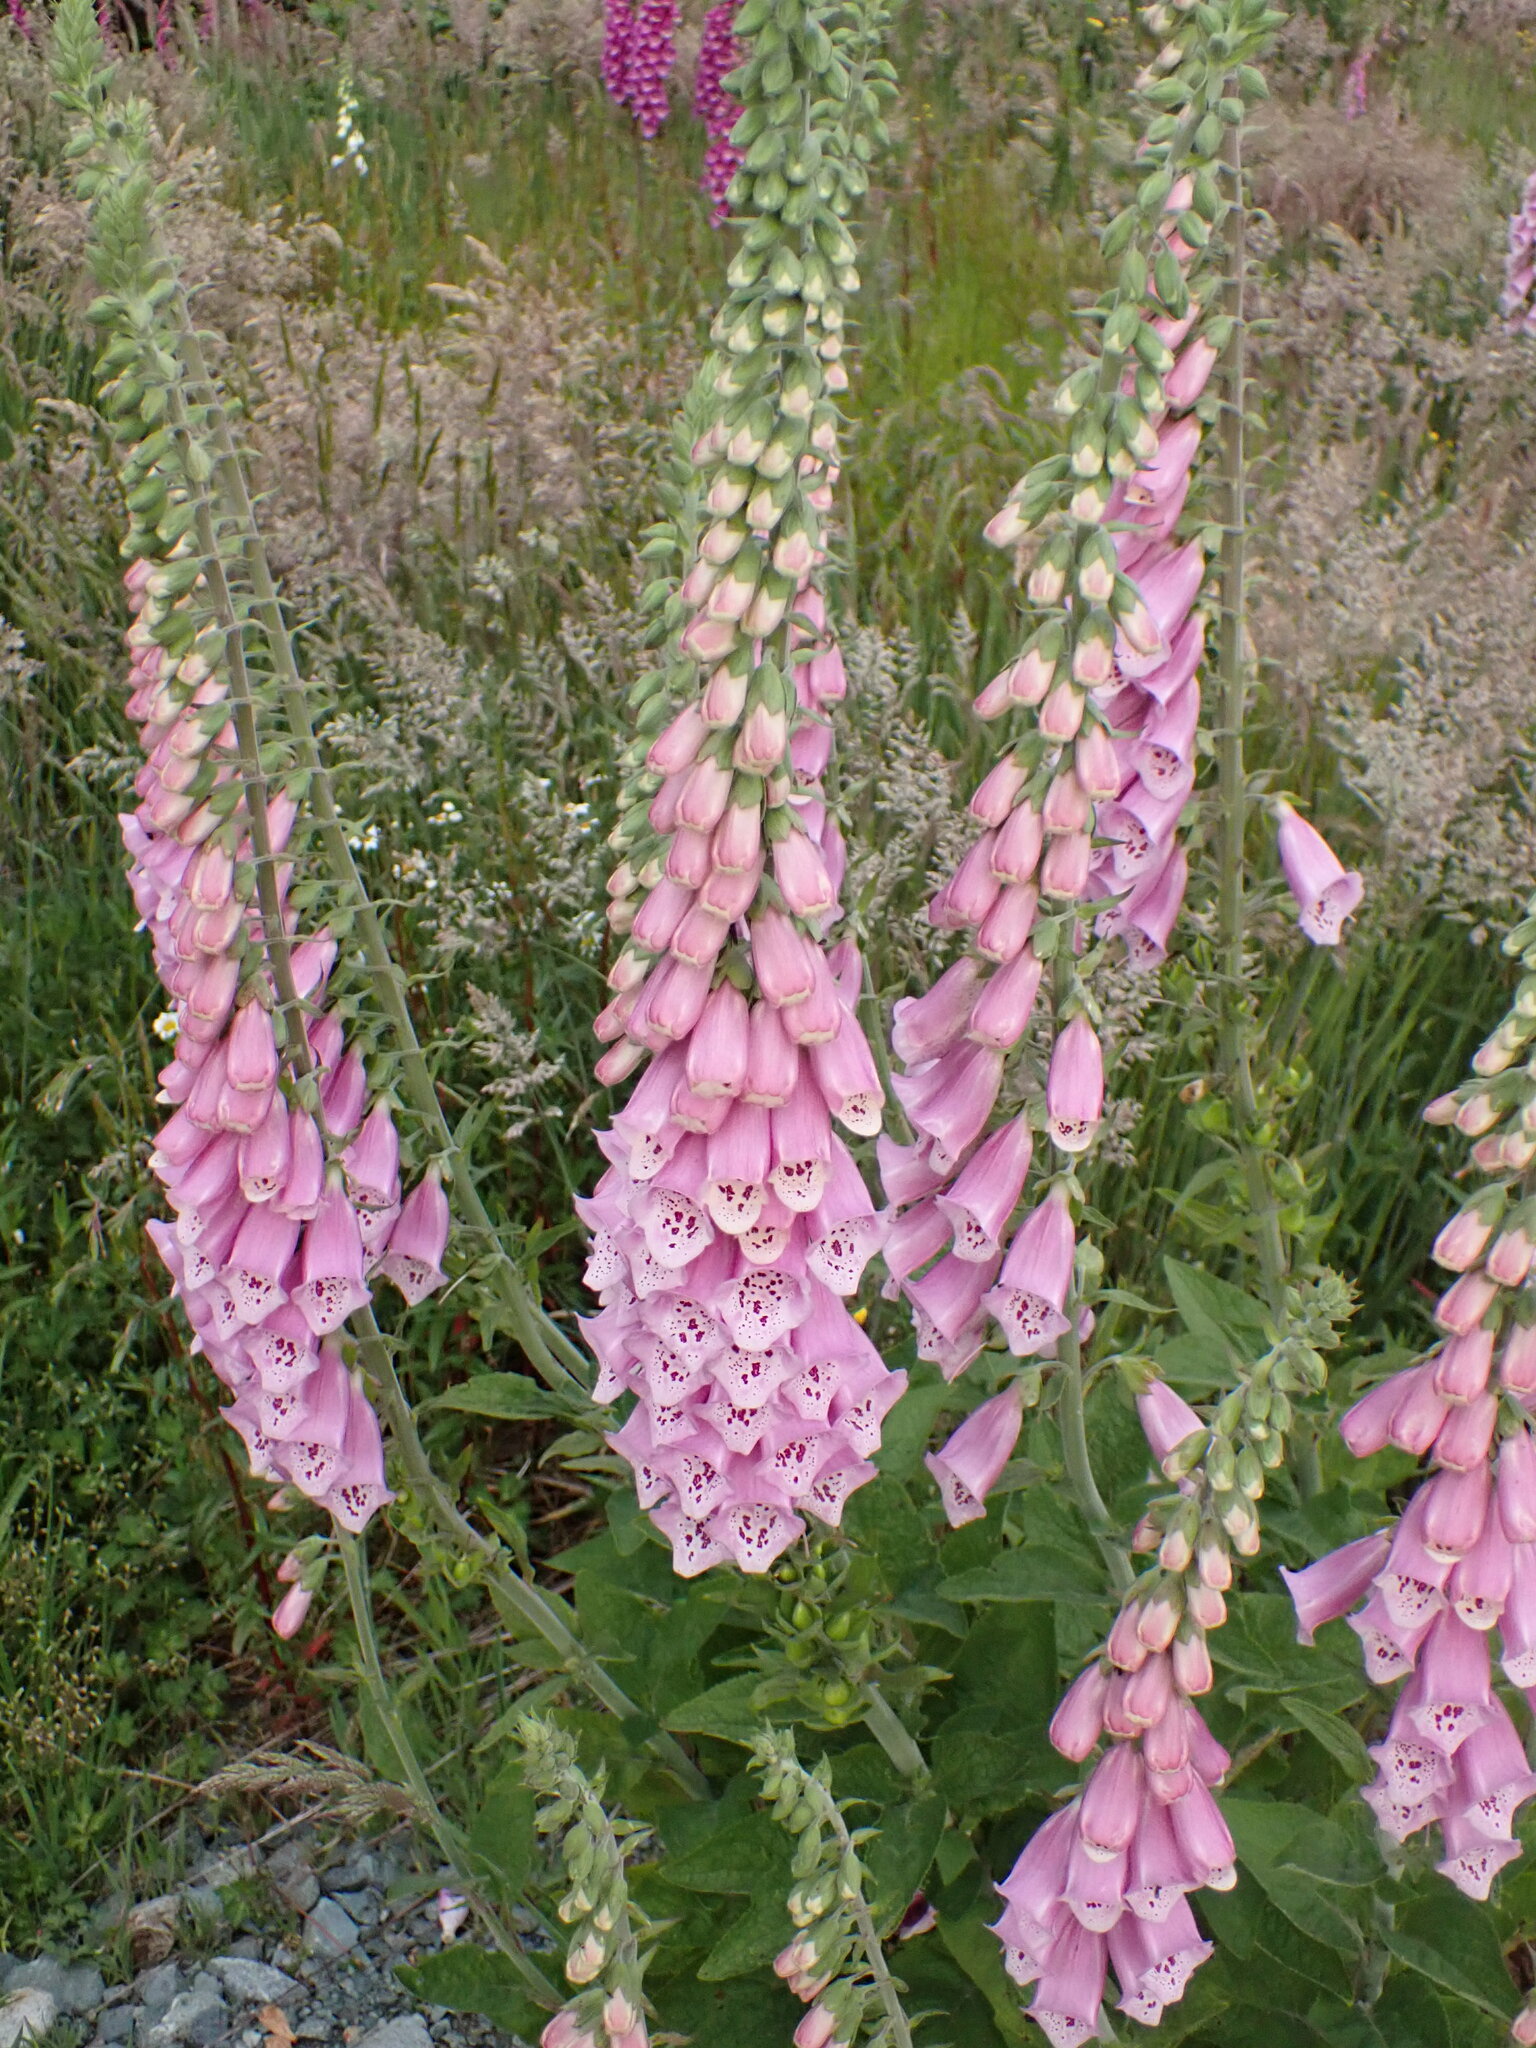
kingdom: Plantae
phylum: Tracheophyta
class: Magnoliopsida
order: Lamiales
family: Plantaginaceae
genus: Digitalis
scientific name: Digitalis purpurea
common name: Foxglove
